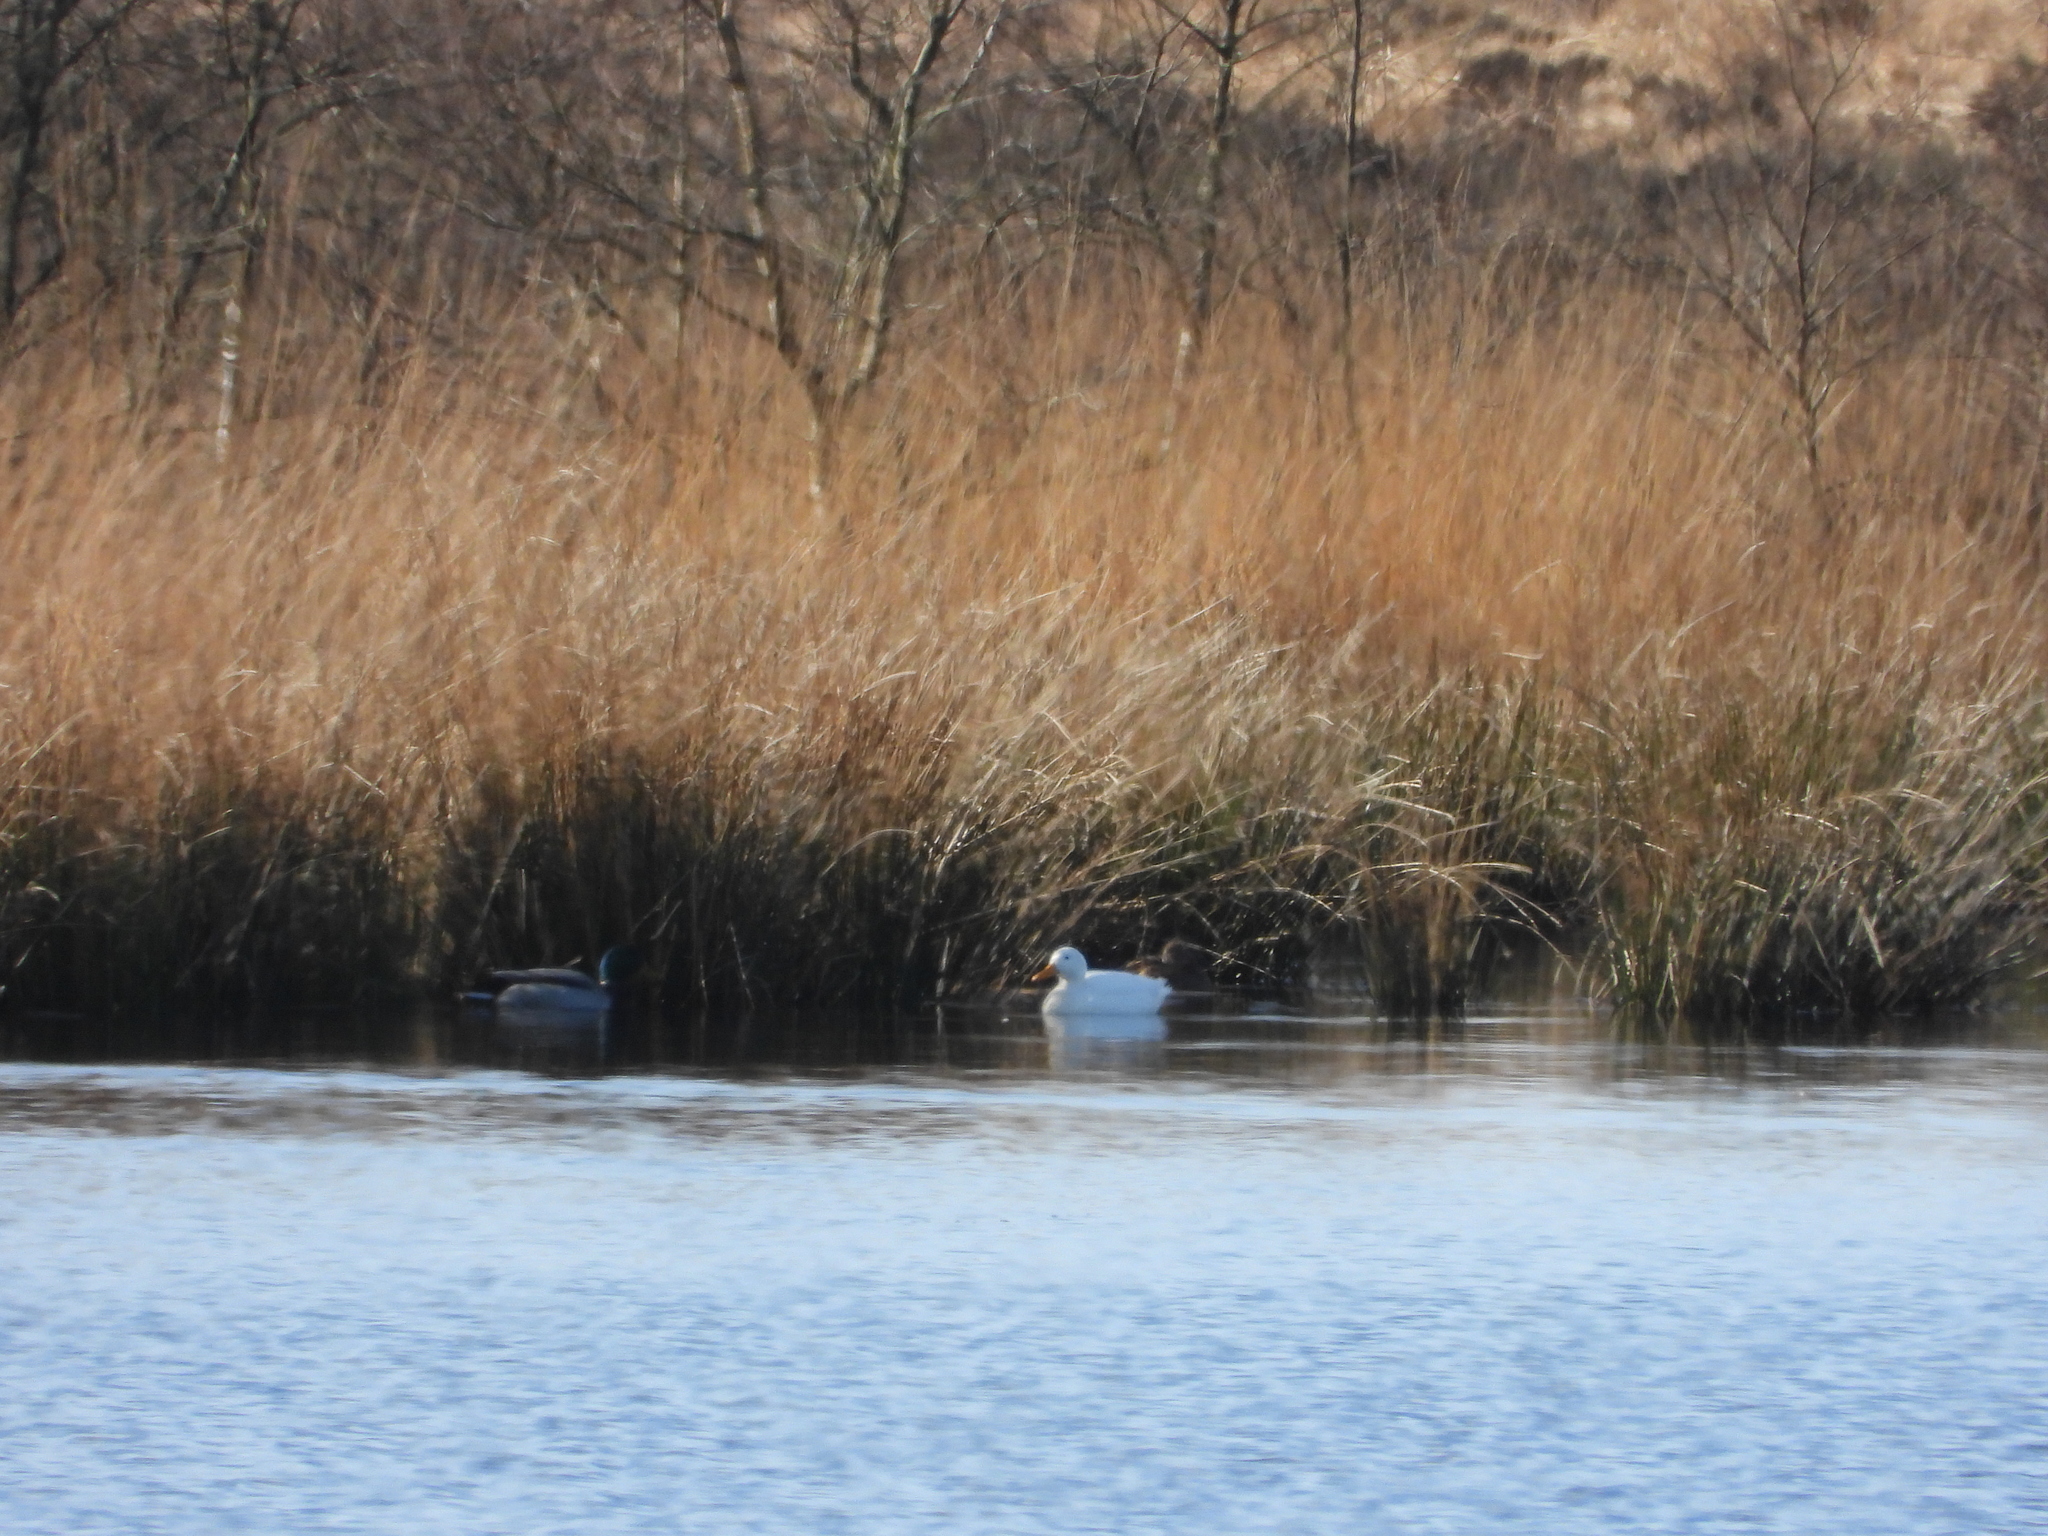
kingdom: Animalia
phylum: Chordata
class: Aves
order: Anseriformes
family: Anatidae
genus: Anas
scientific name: Anas platyrhynchos
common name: Mallard
